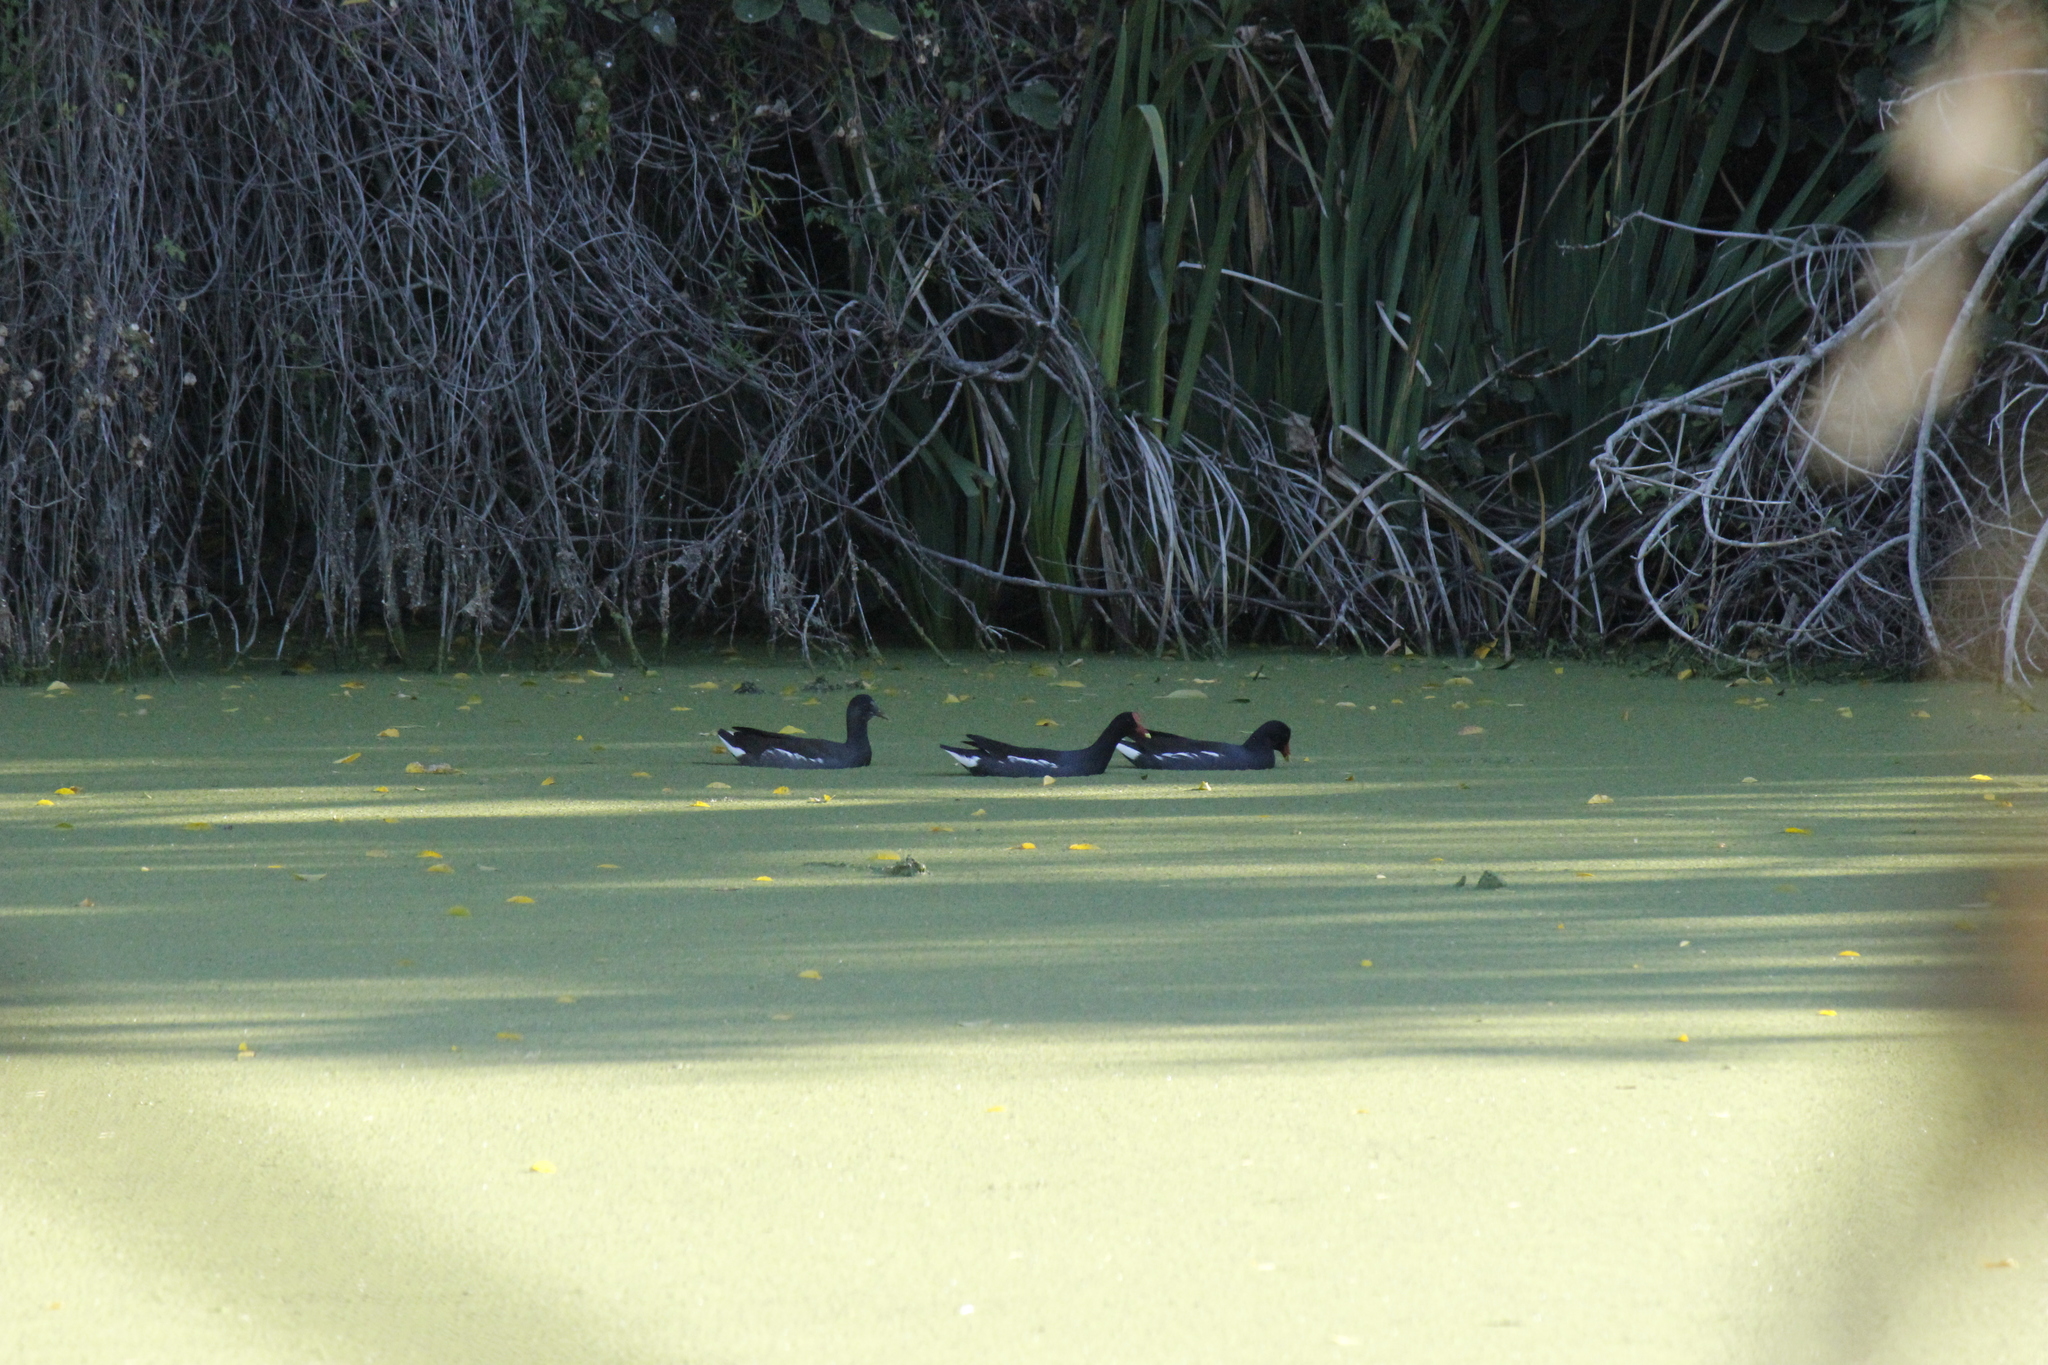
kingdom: Animalia
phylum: Chordata
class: Aves
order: Gruiformes
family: Rallidae
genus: Gallinula
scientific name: Gallinula chloropus
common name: Common moorhen
